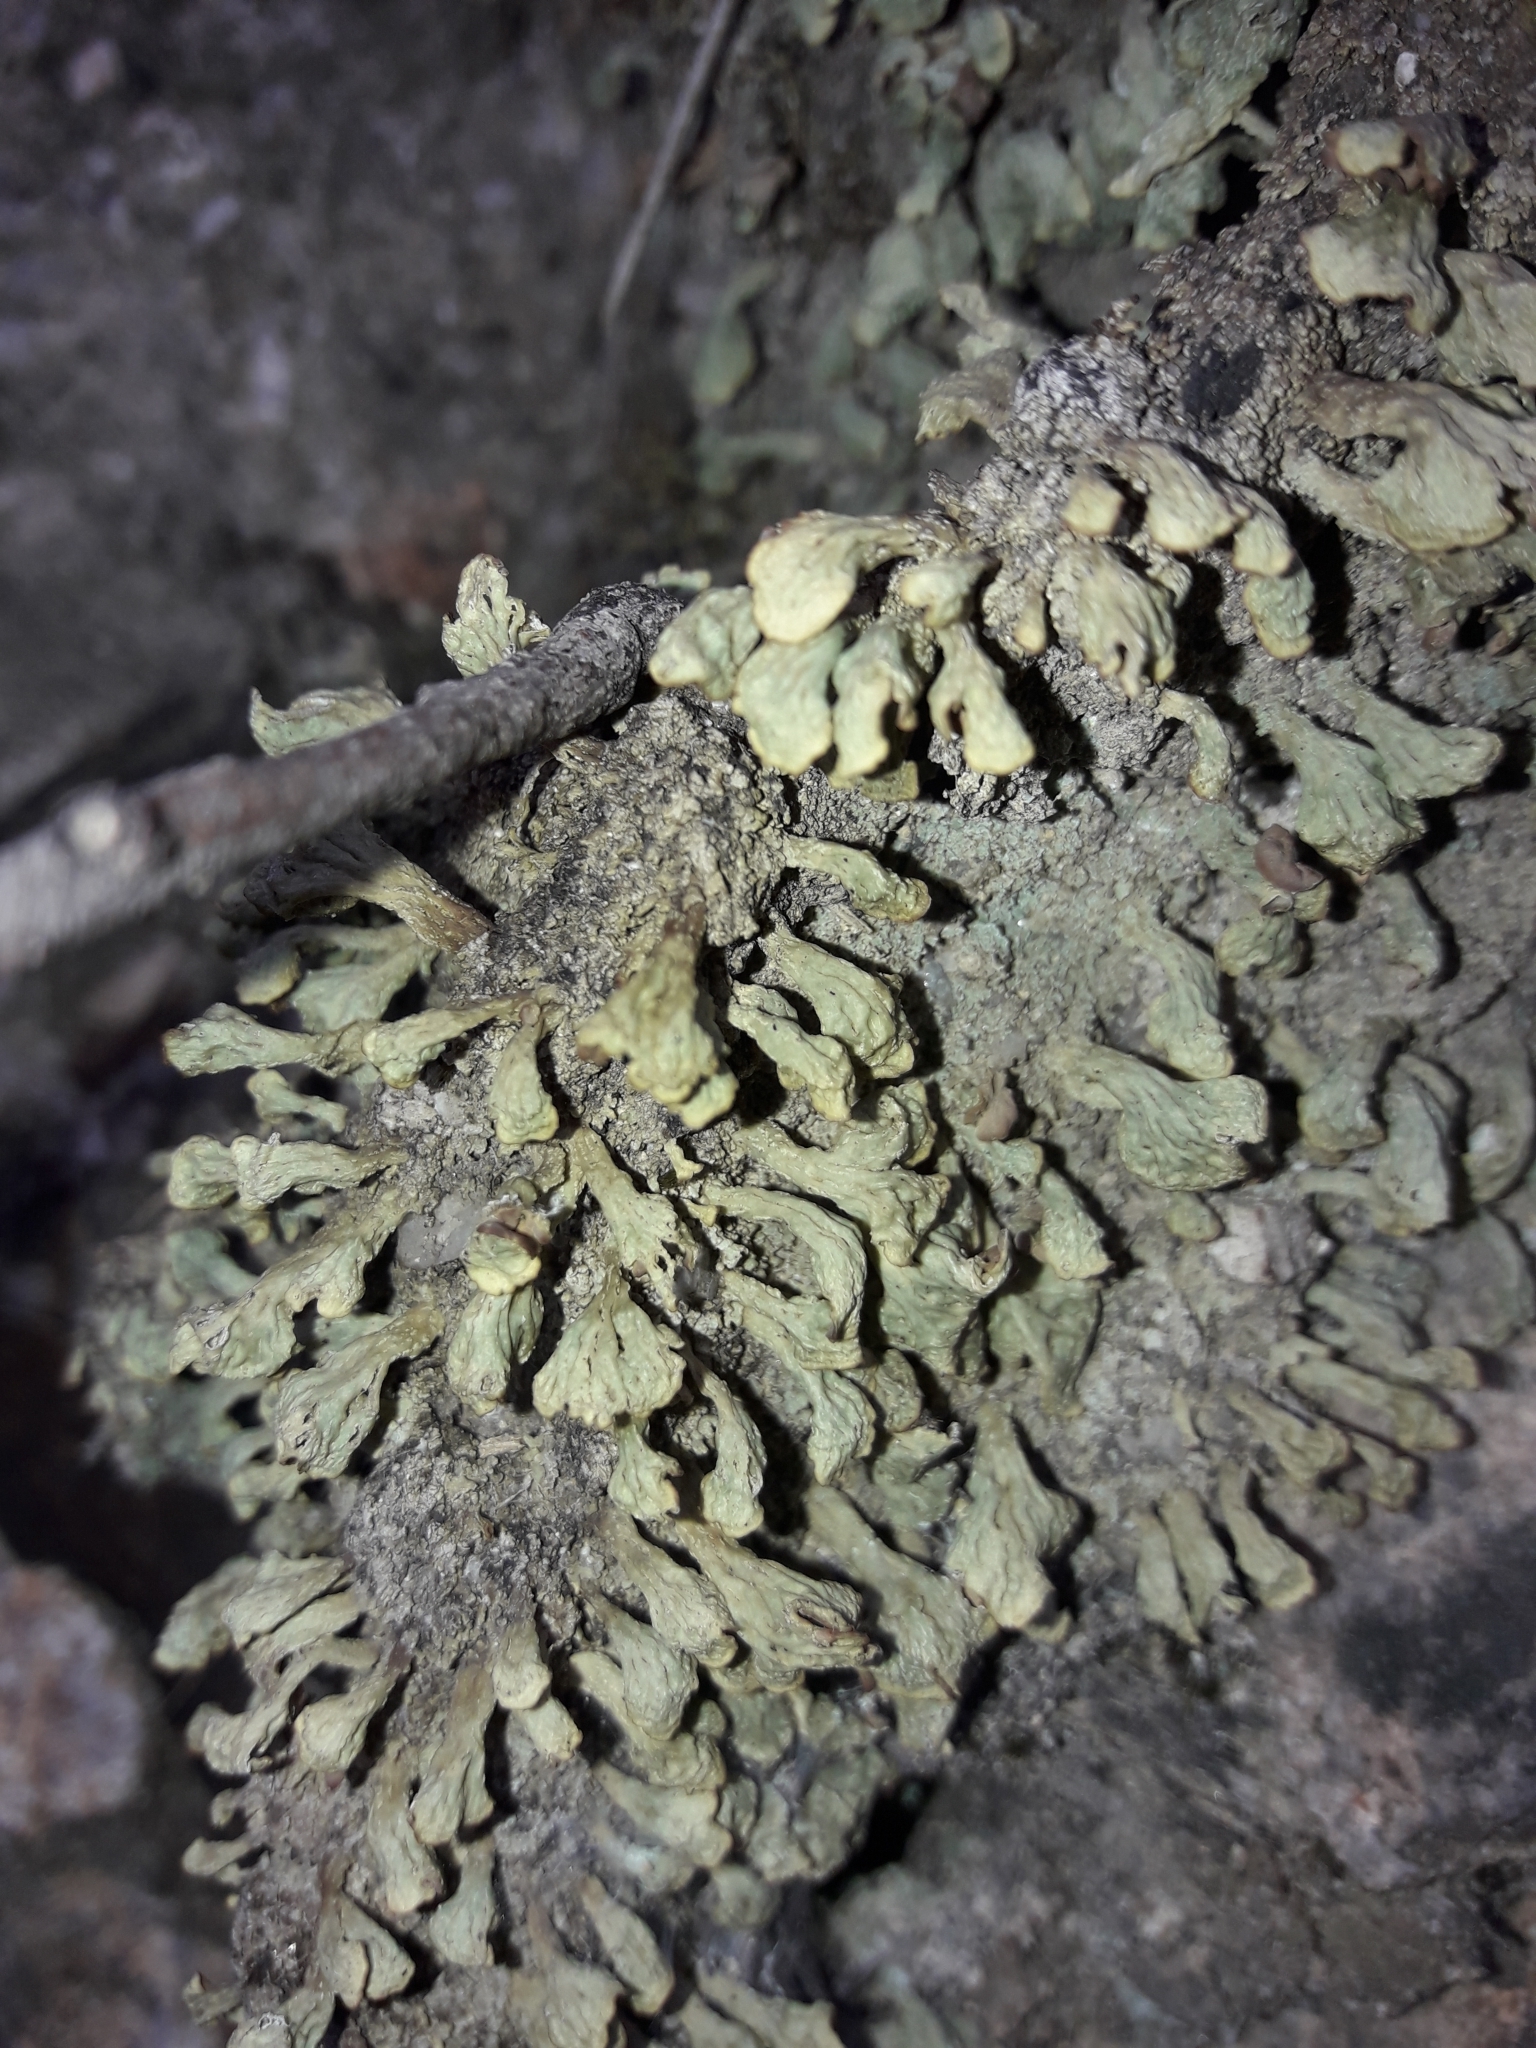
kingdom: Fungi
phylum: Ascomycota
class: Lecanoromycetes
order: Lecanorales
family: Cladoniaceae
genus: Thysanothecium
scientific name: Thysanothecium scutellatum
